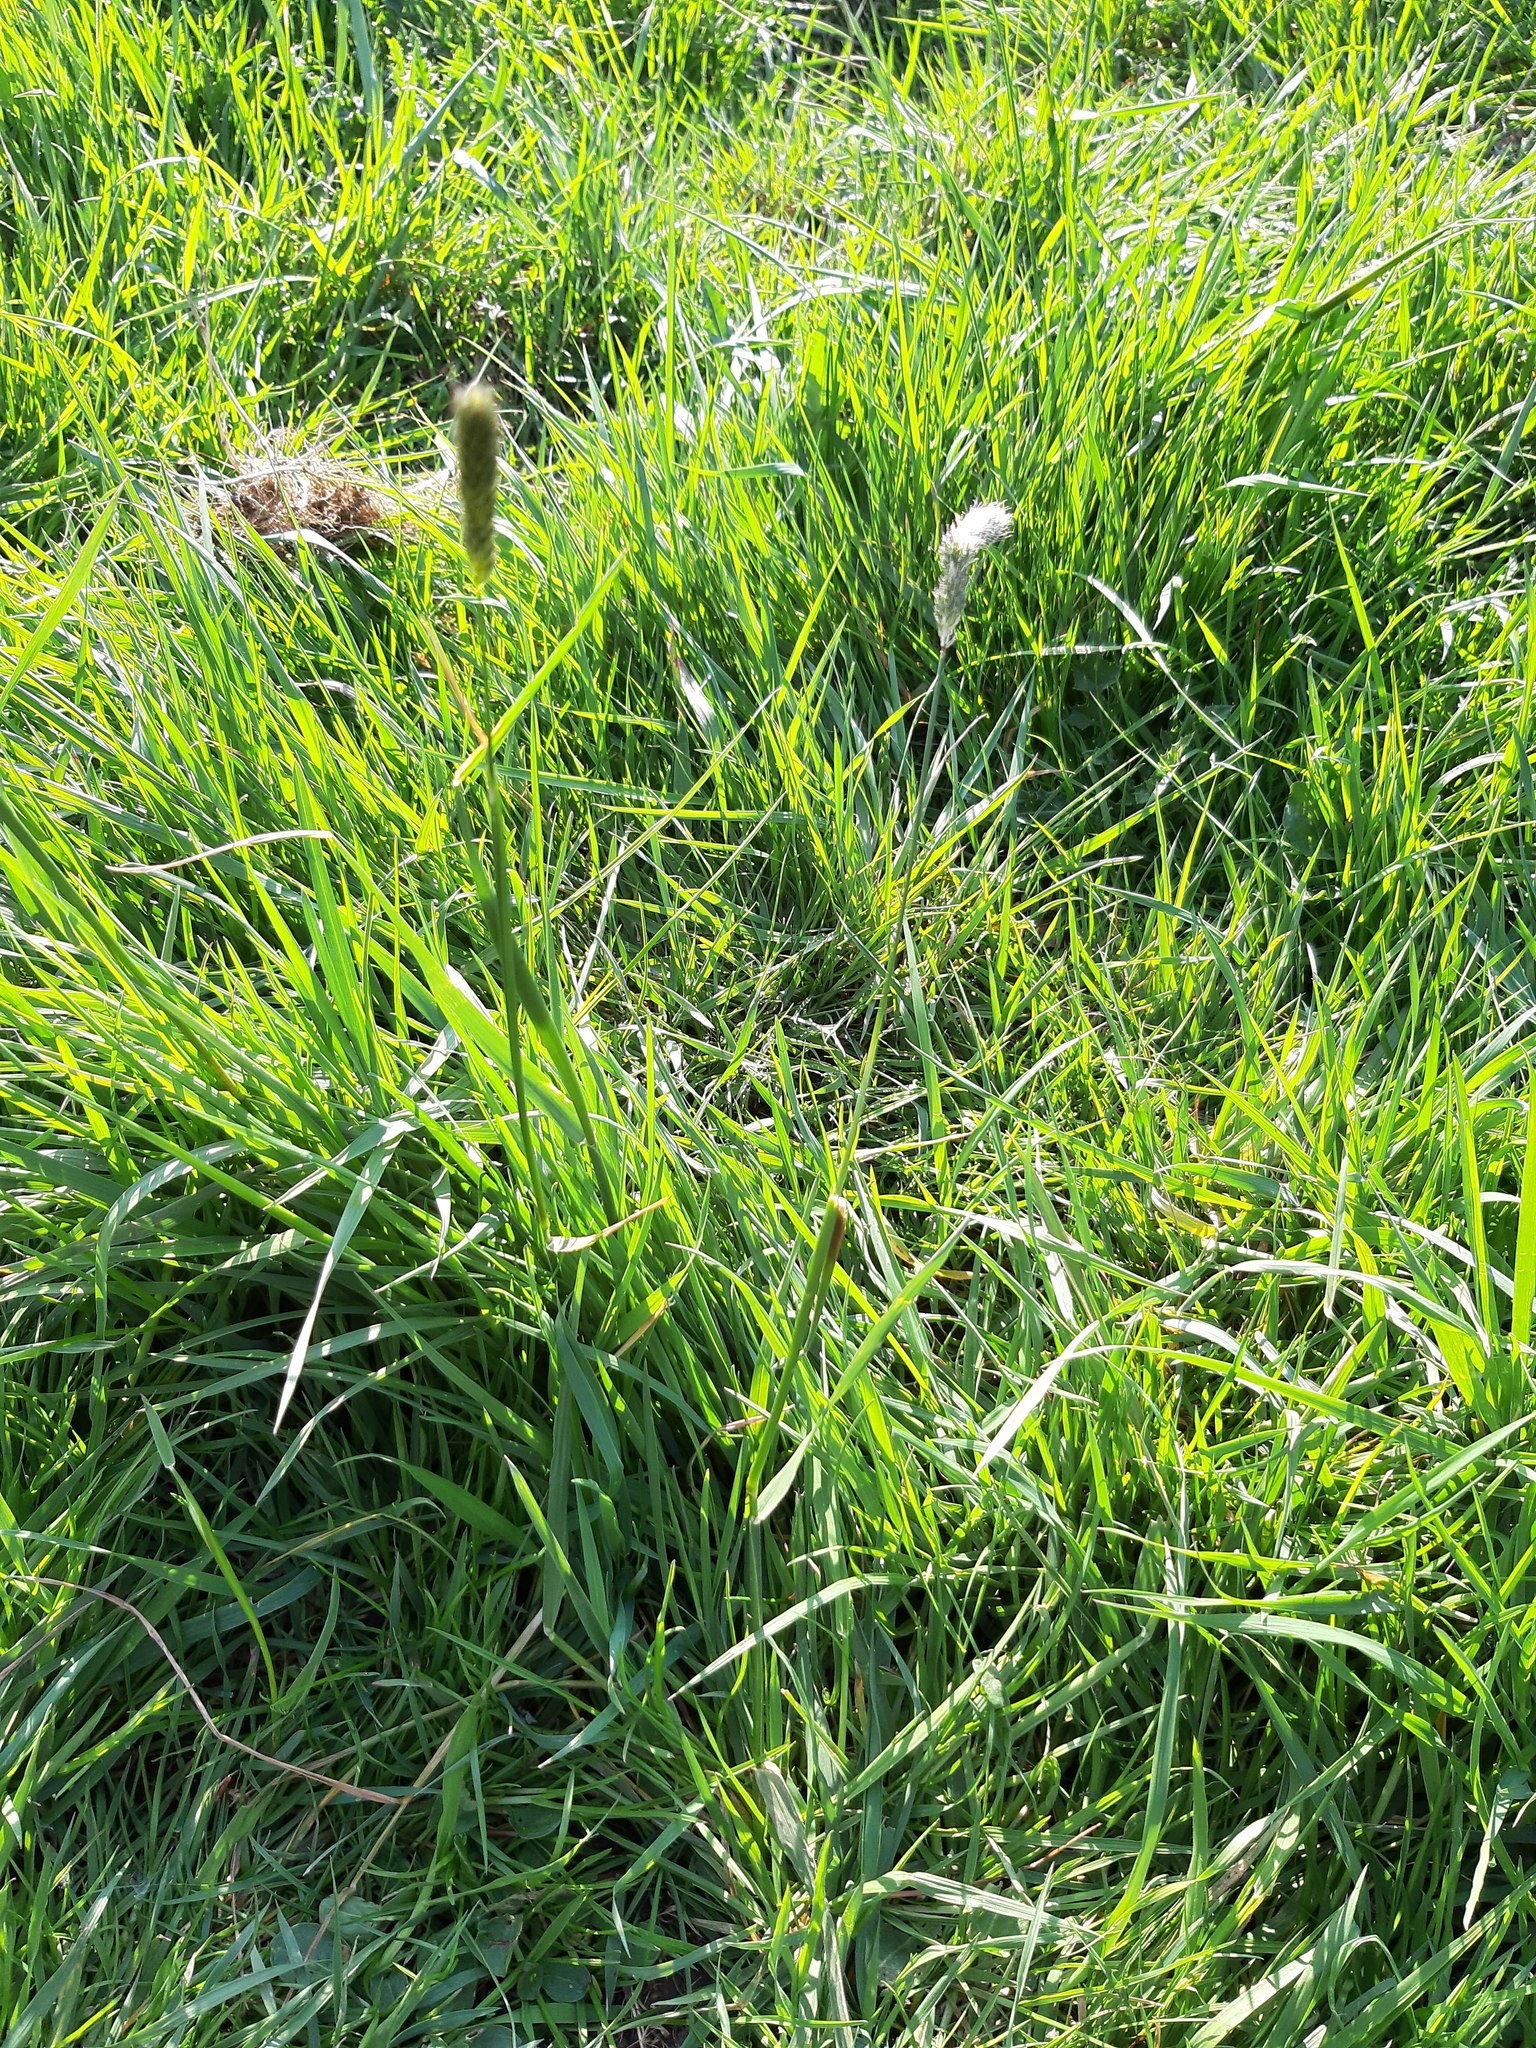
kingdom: Plantae
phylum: Tracheophyta
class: Liliopsida
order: Poales
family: Poaceae
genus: Alopecurus
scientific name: Alopecurus pratensis
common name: Meadow foxtail
